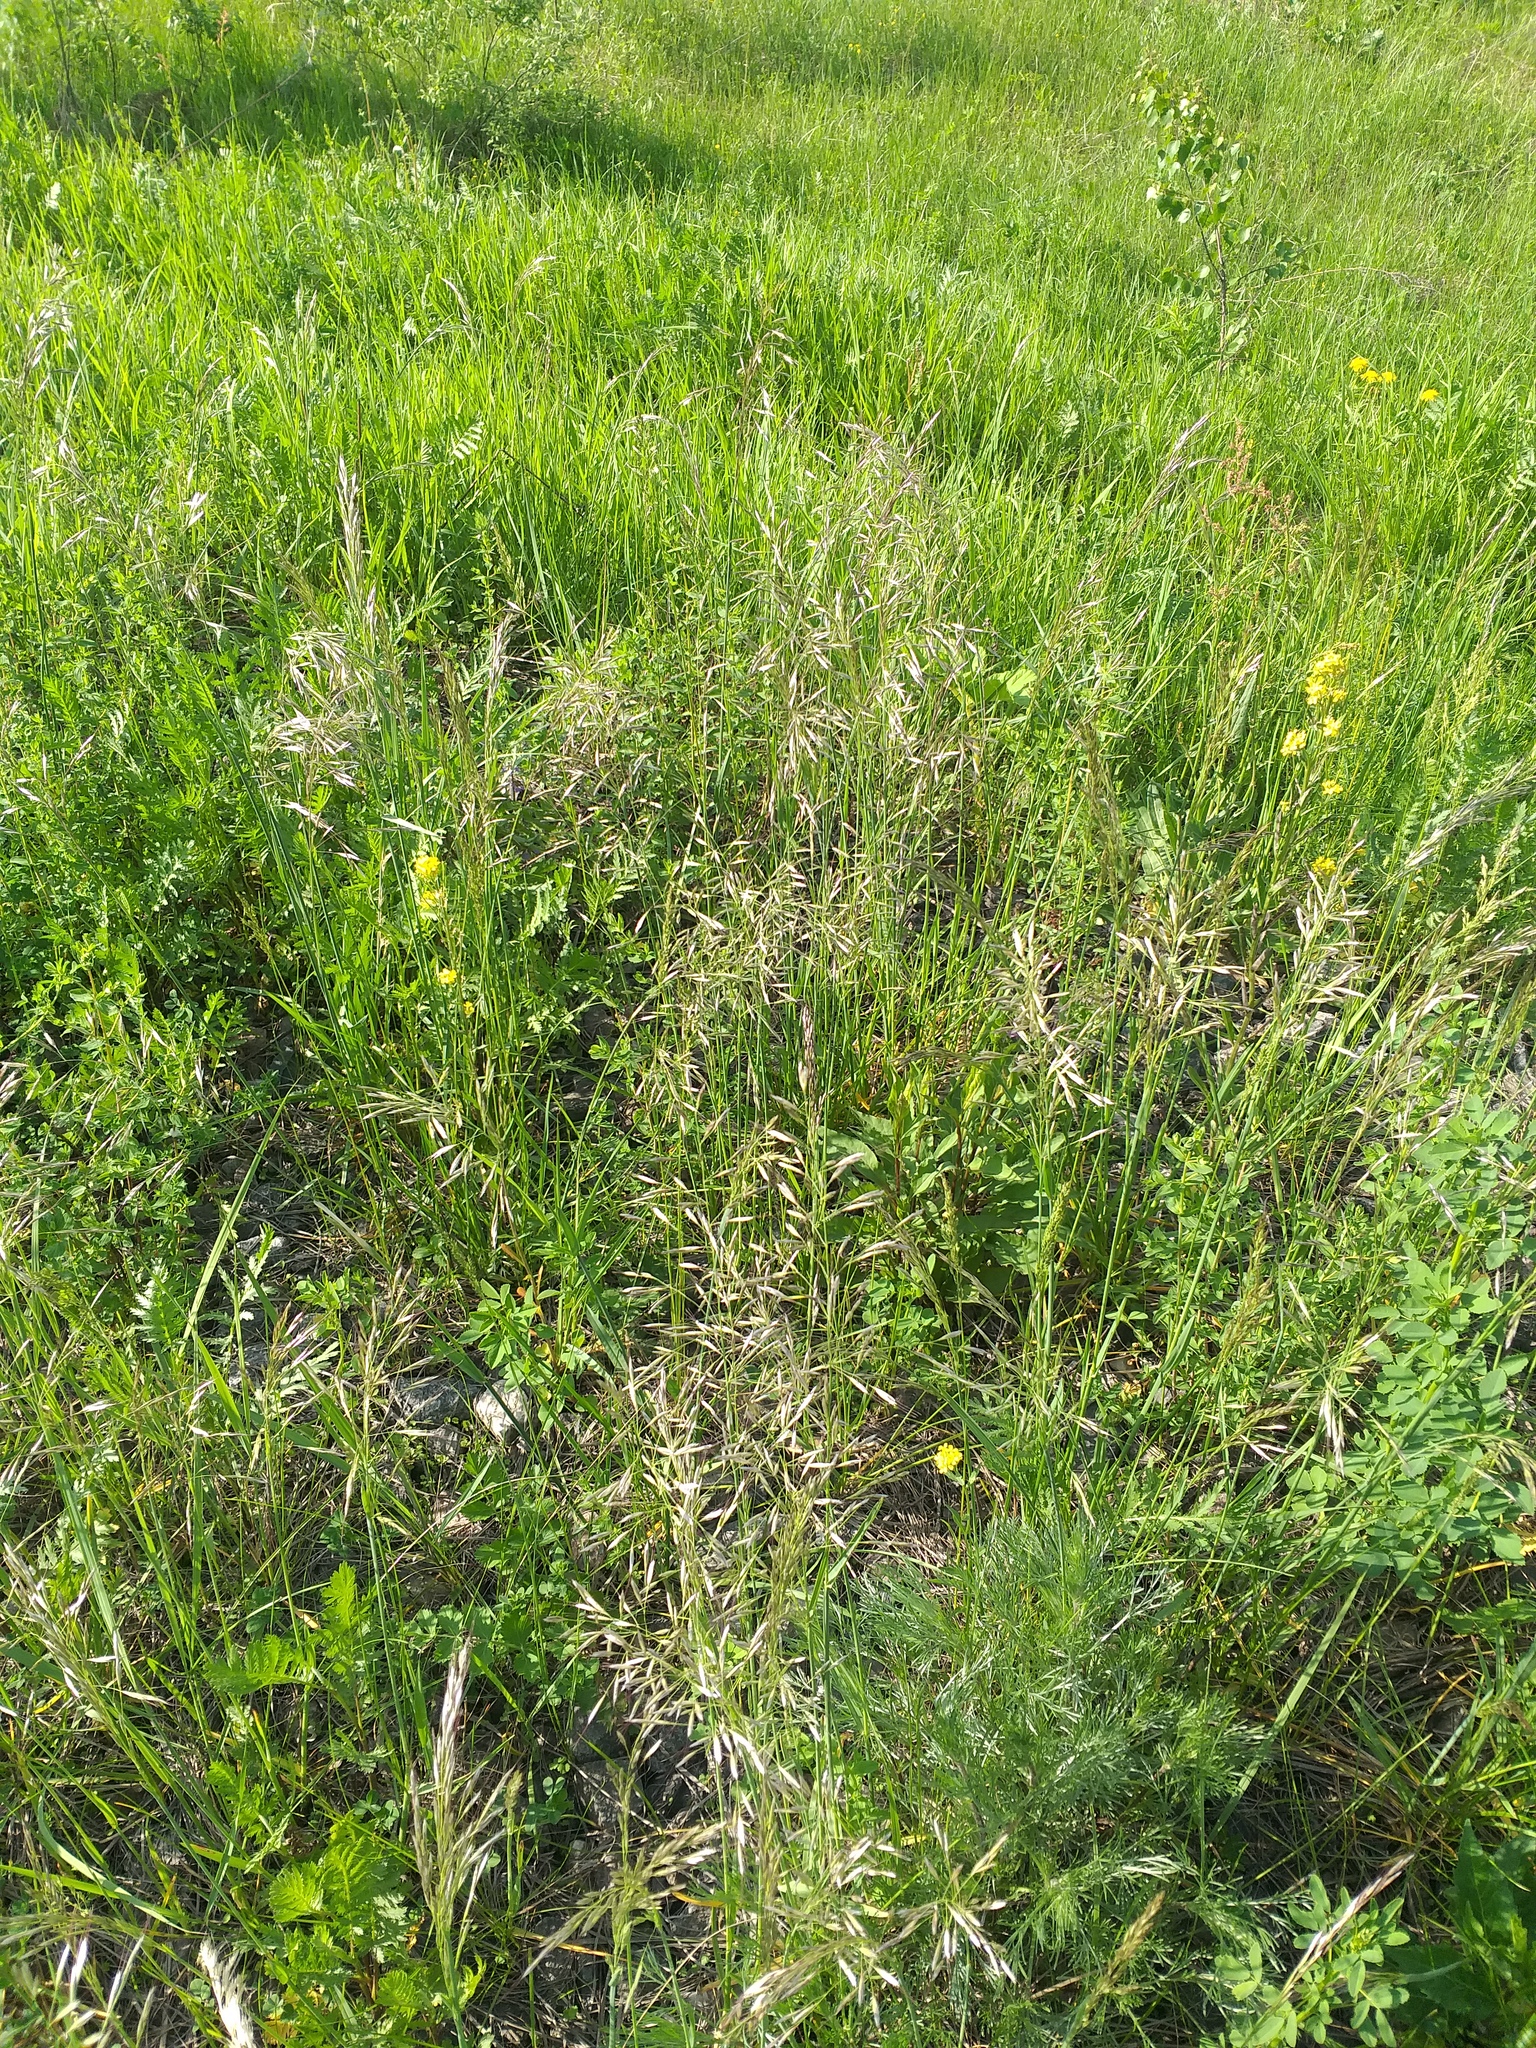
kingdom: Plantae
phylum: Tracheophyta
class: Liliopsida
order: Poales
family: Poaceae
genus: Avenula
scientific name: Avenula pubescens
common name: Downy alpine oatgrass
